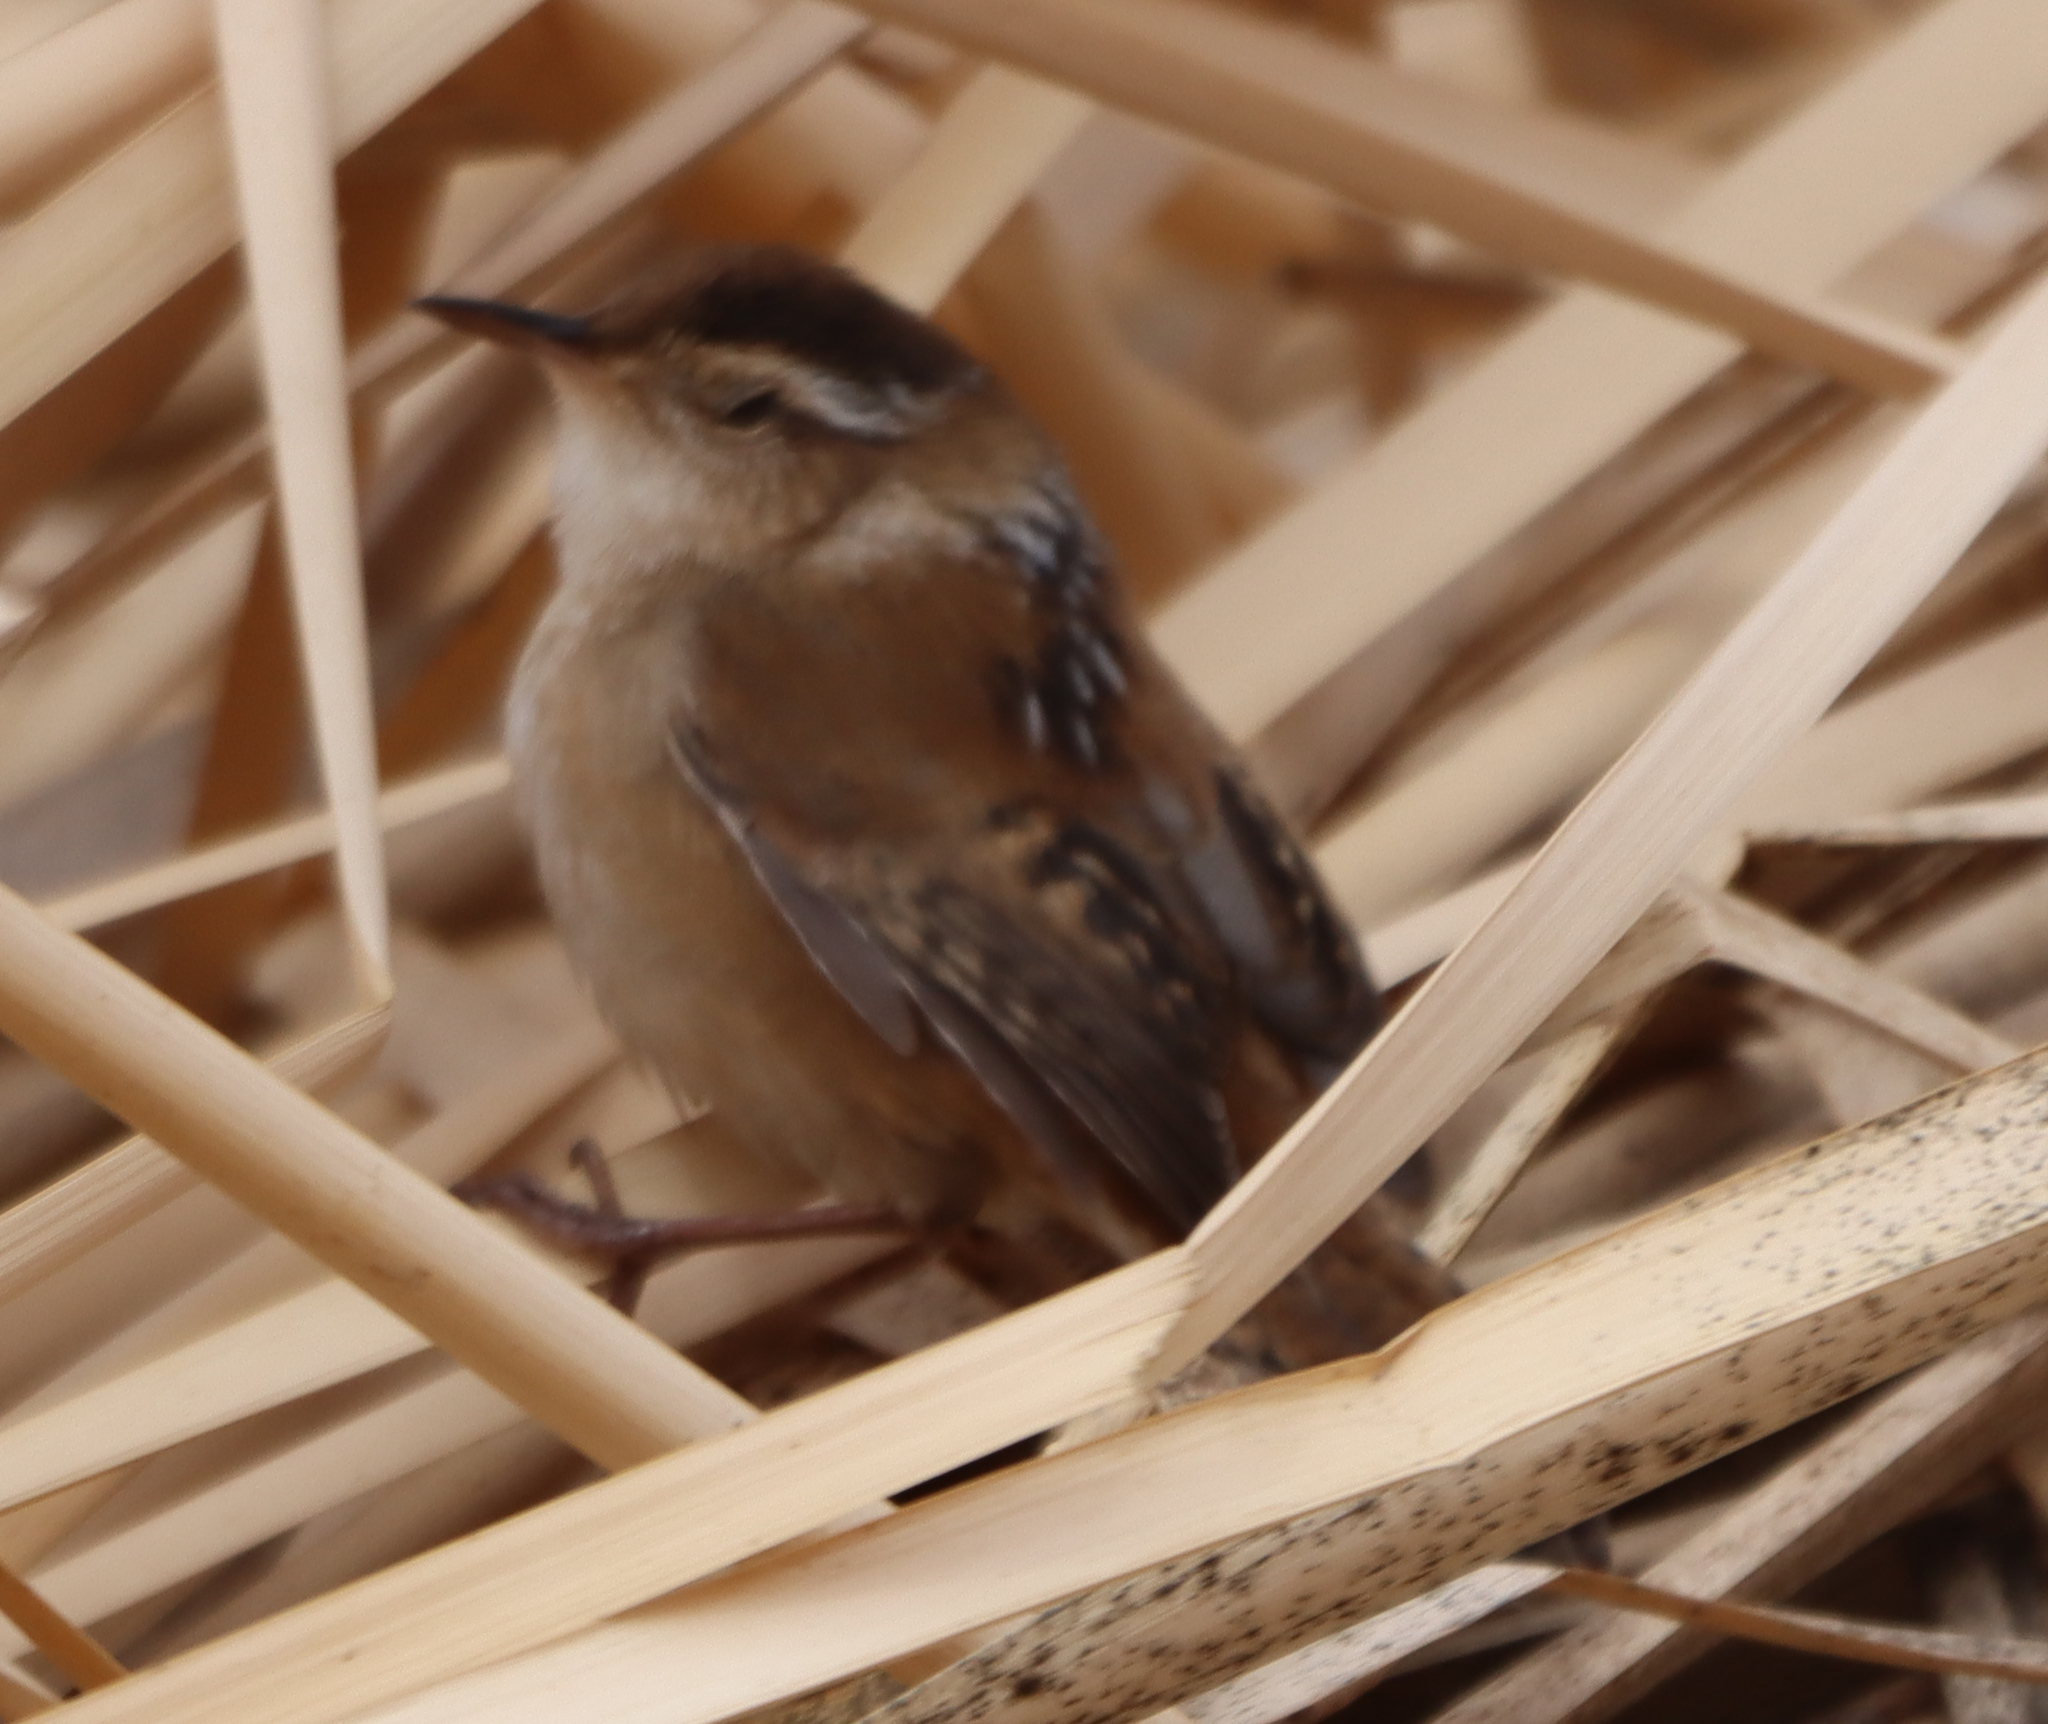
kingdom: Animalia
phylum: Chordata
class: Aves
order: Passeriformes
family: Troglodytidae
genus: Cistothorus
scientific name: Cistothorus palustris
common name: Marsh wren
